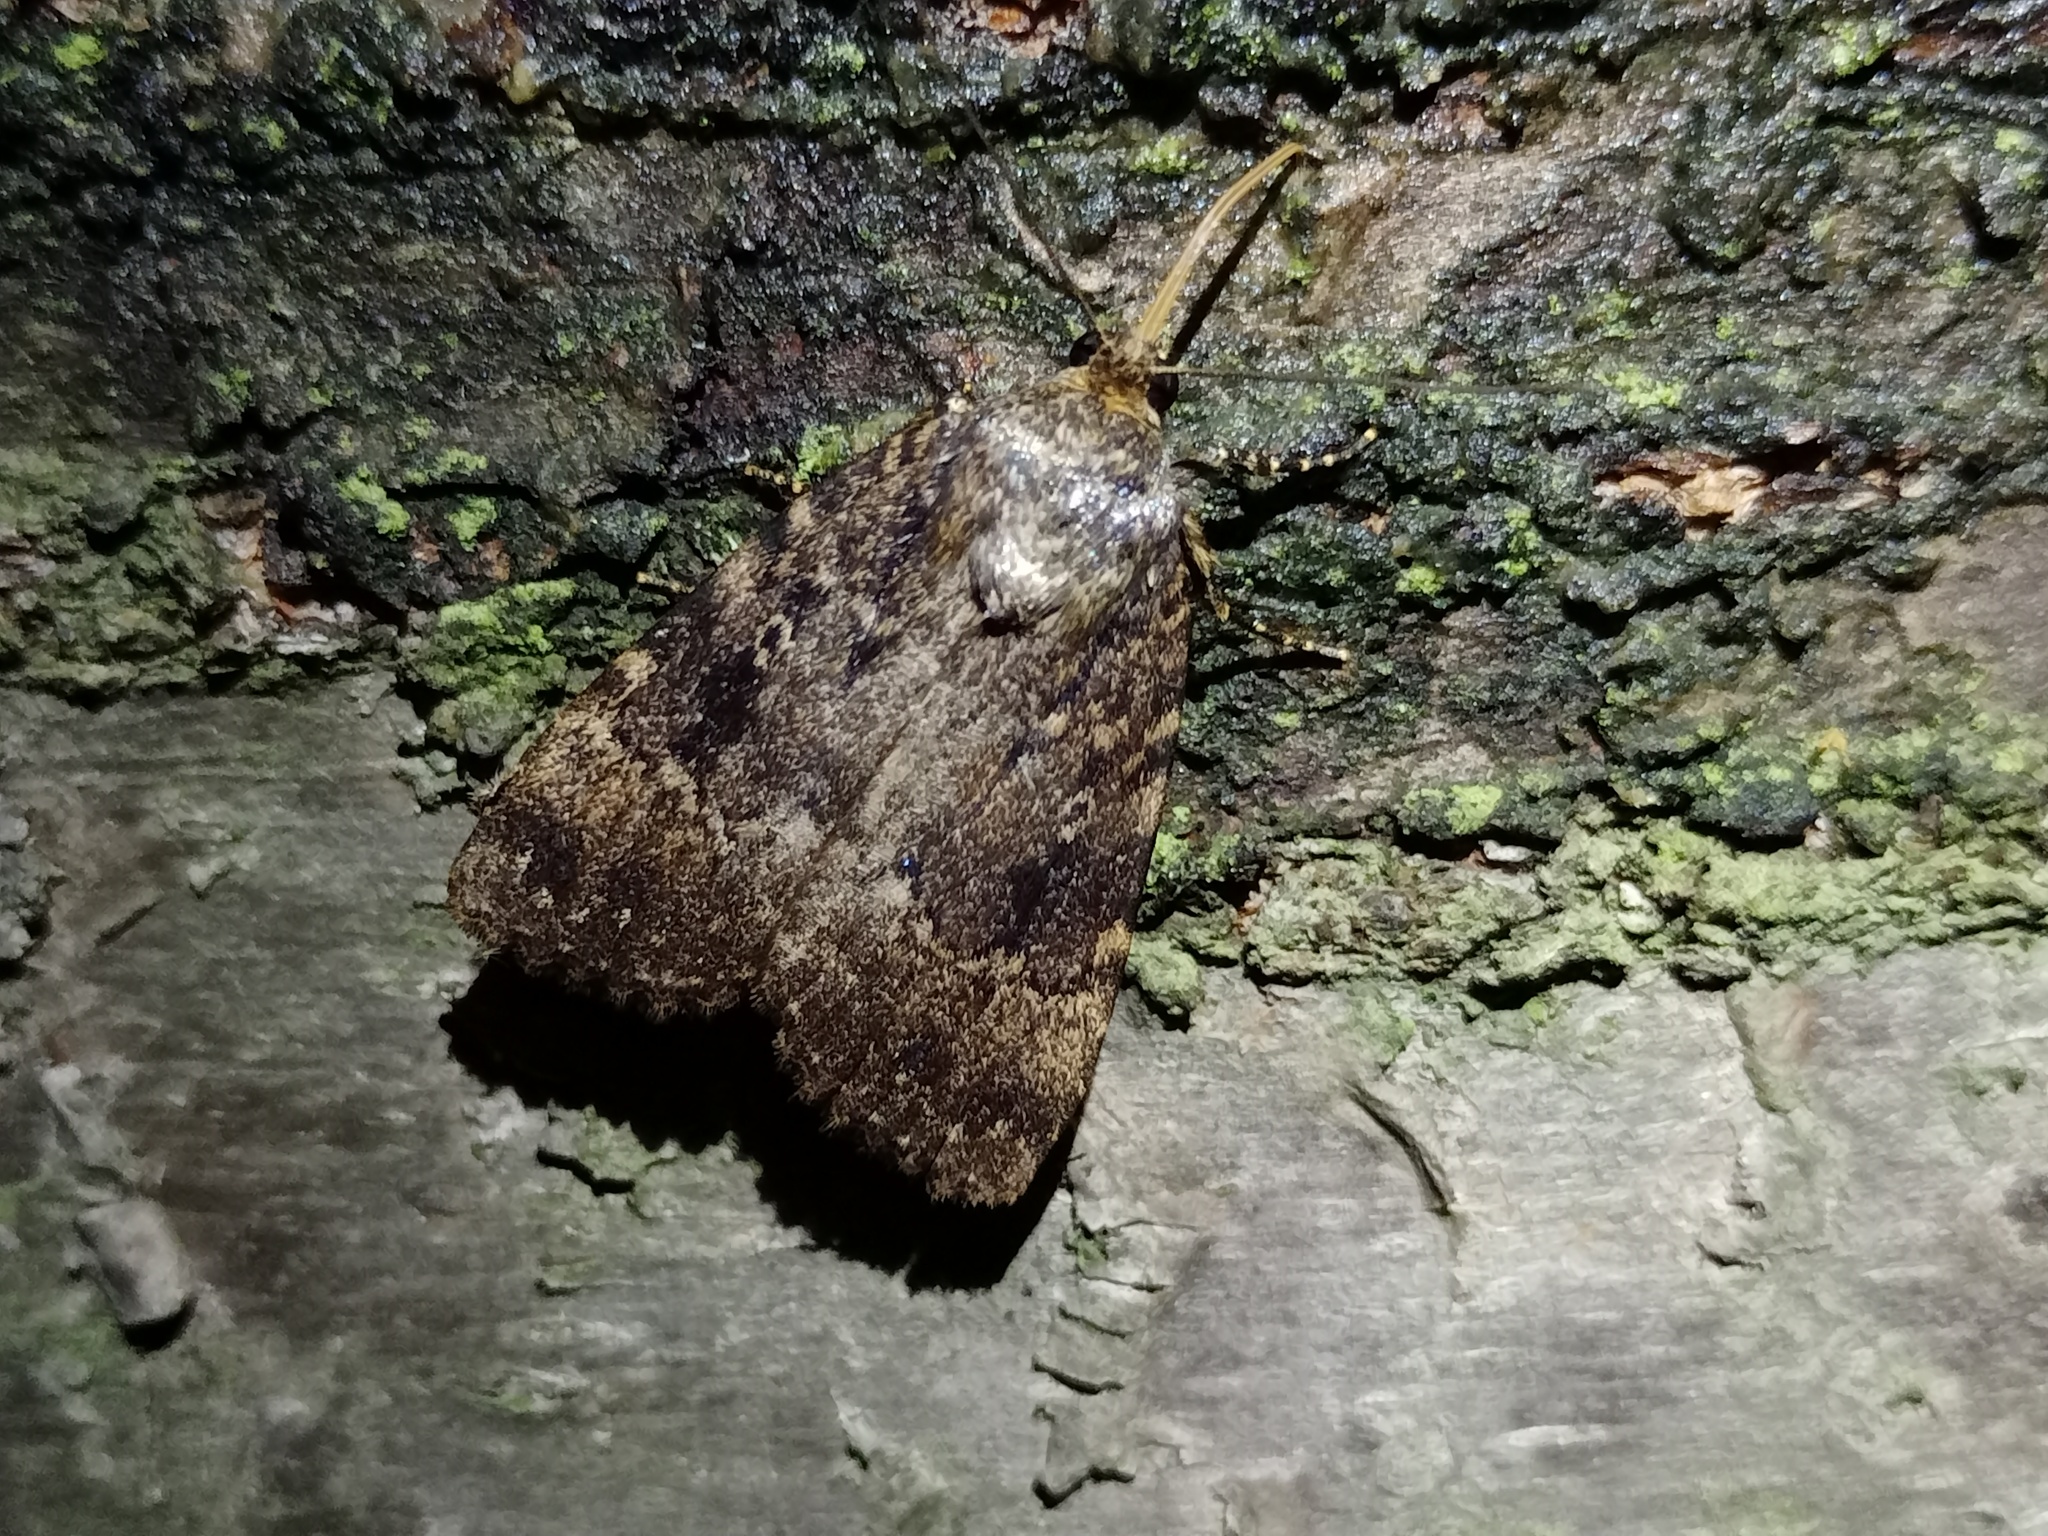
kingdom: Animalia
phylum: Arthropoda
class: Insecta
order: Lepidoptera
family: Noctuidae
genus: Amphipyra
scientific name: Amphipyra pyramidea
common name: Copper underwing
